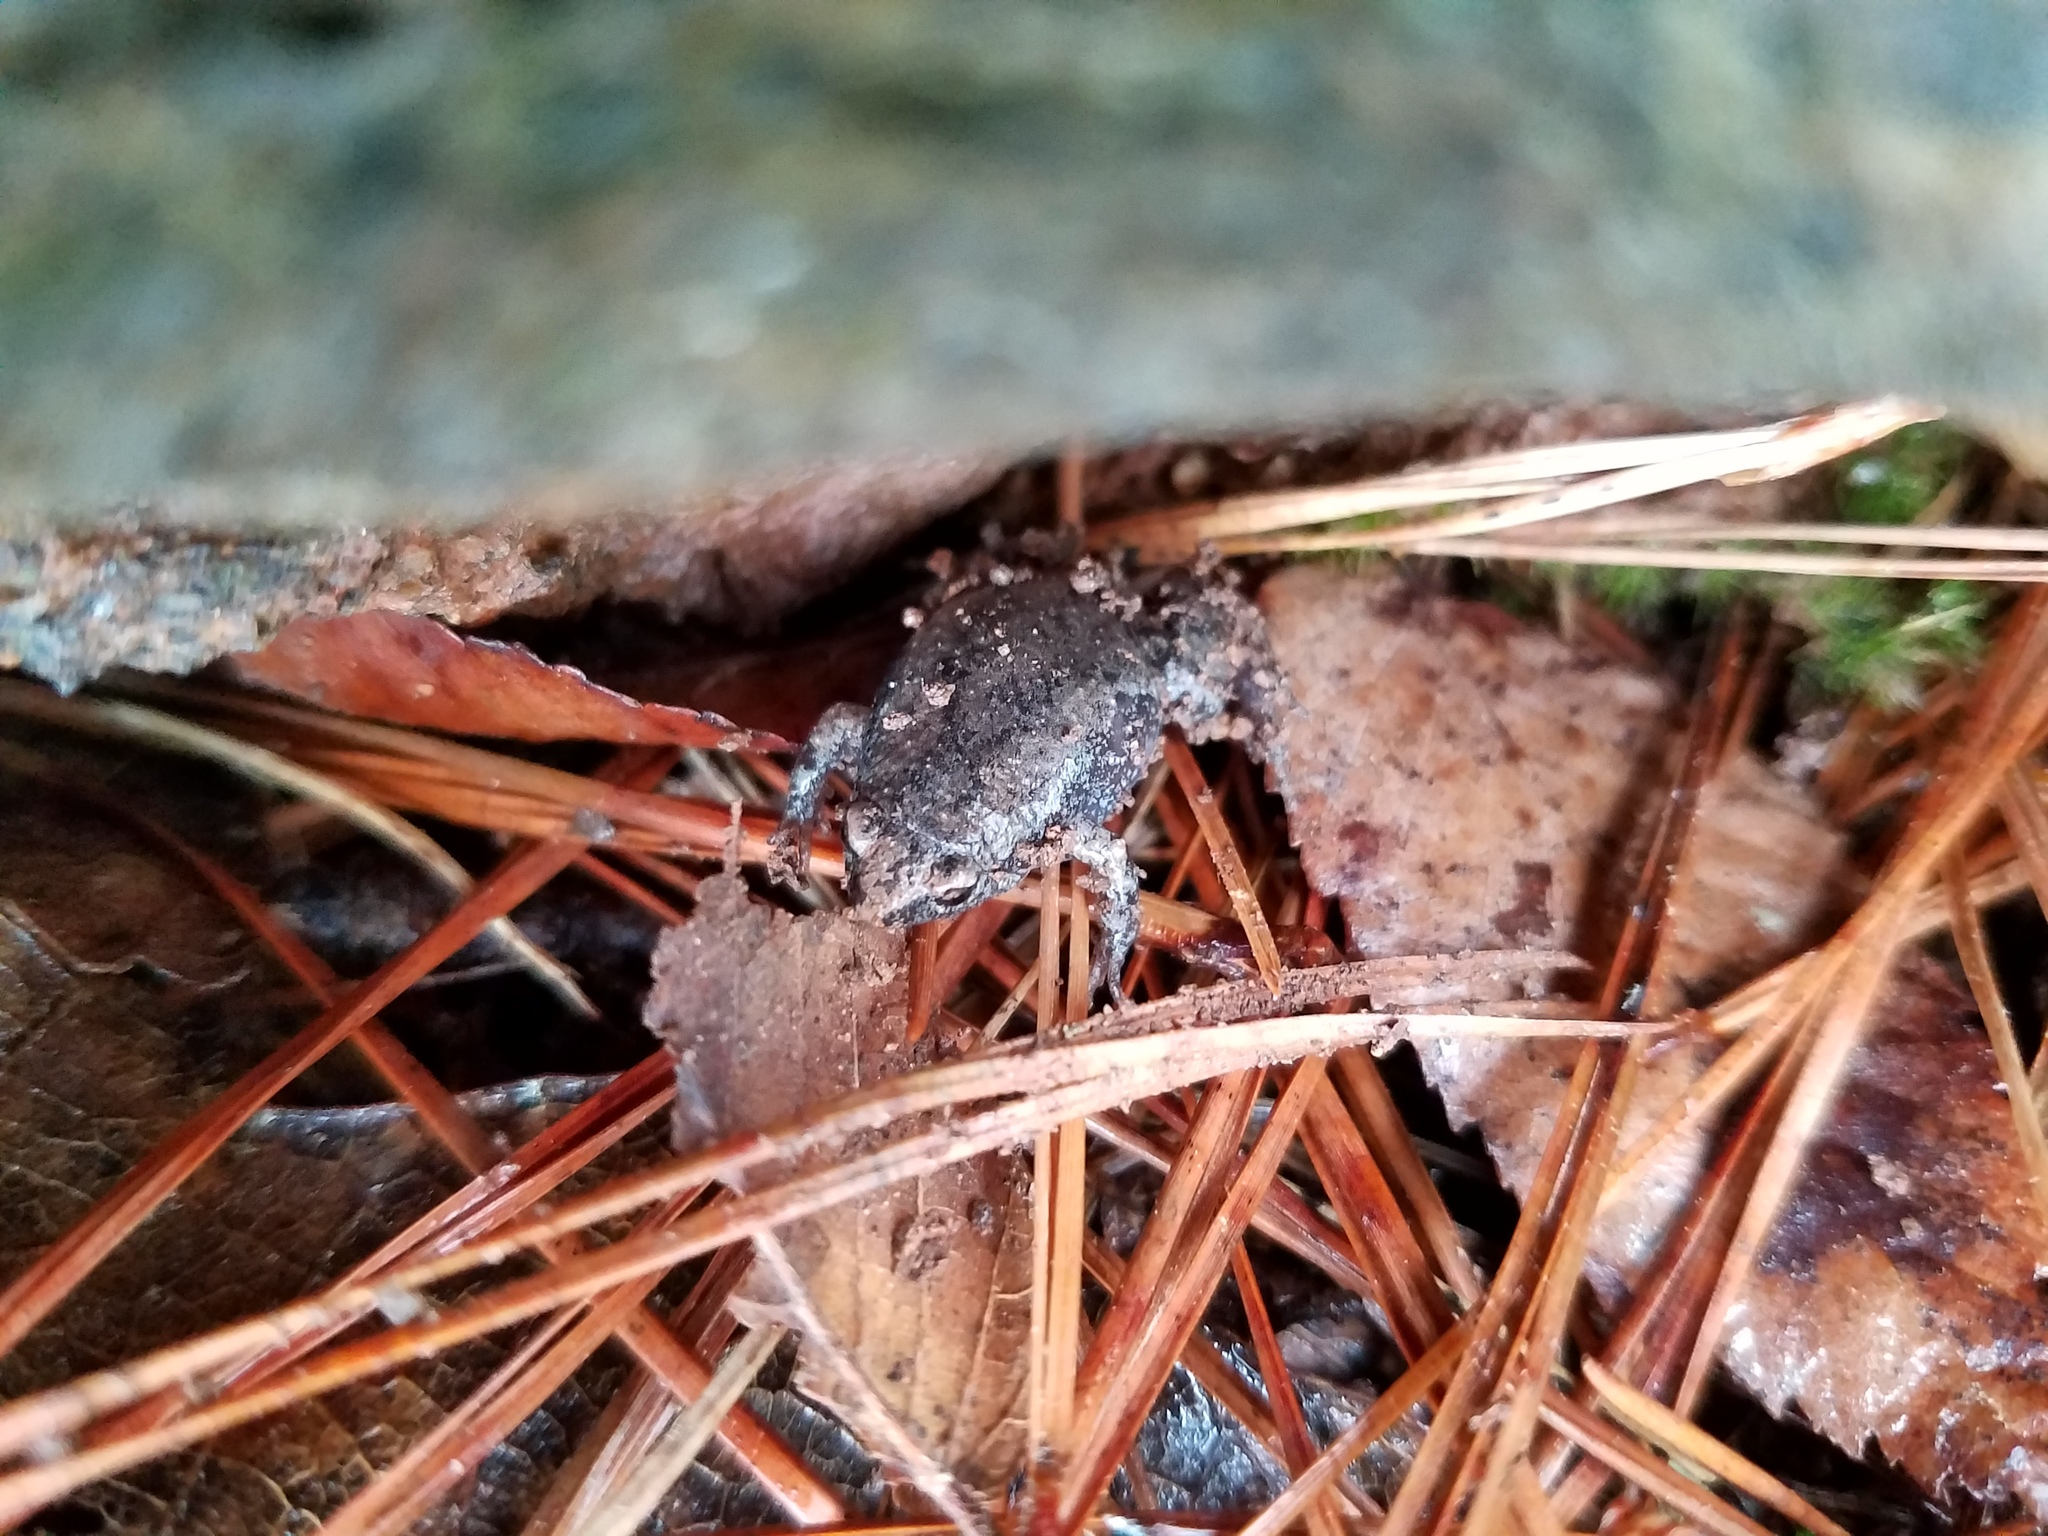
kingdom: Animalia
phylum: Chordata
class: Amphibia
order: Anura
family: Microhylidae
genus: Gastrophryne
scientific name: Gastrophryne carolinensis
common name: Eastern narrowmouth toad
